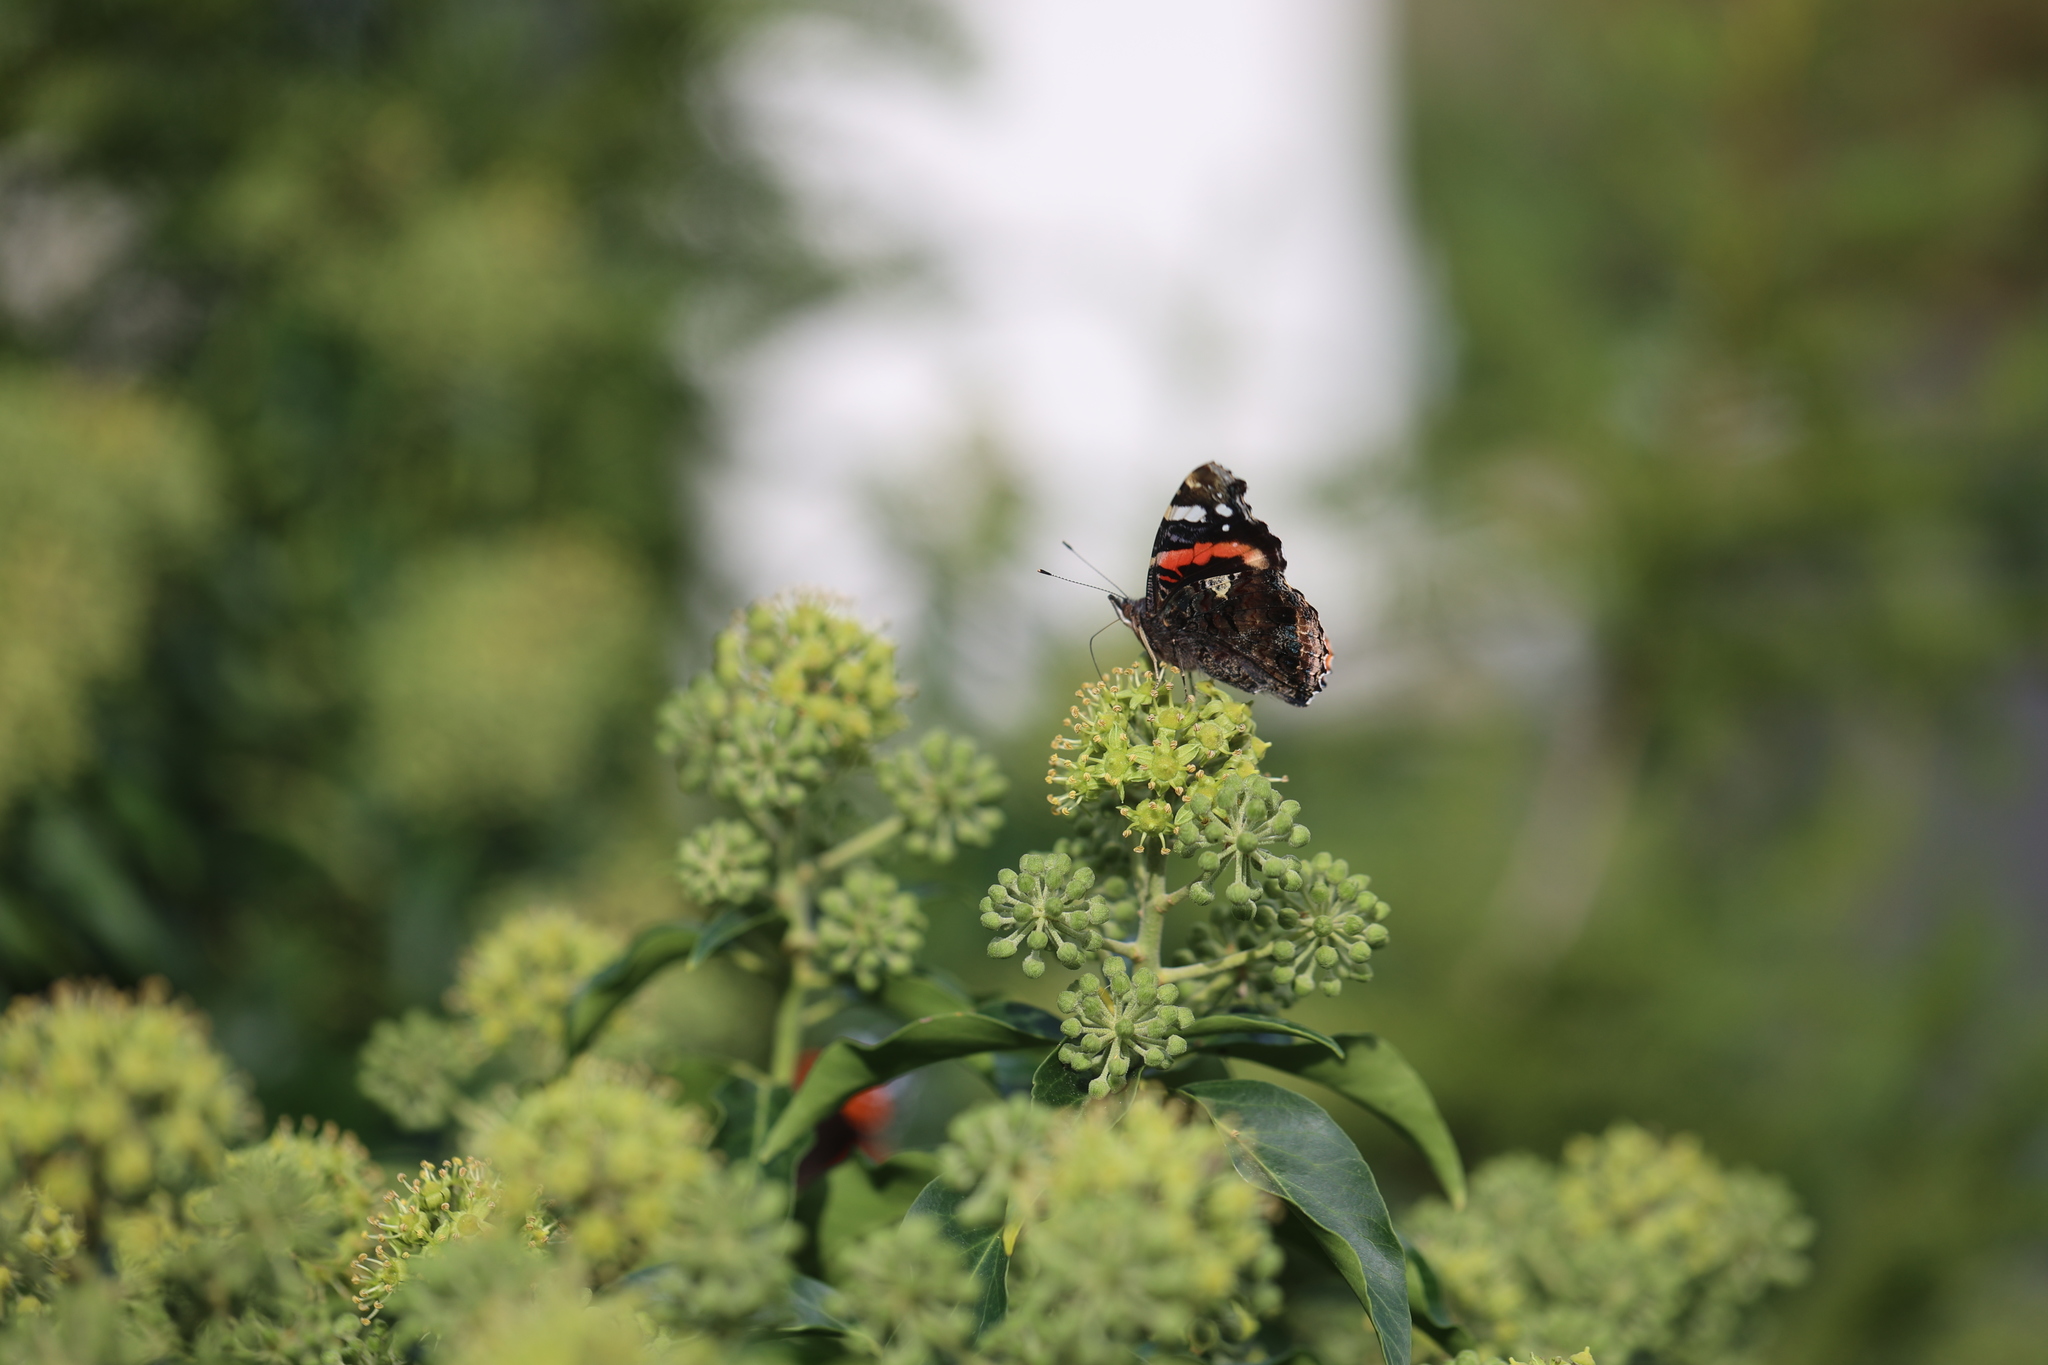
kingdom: Animalia
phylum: Arthropoda
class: Insecta
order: Lepidoptera
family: Nymphalidae
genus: Vanessa
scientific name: Vanessa atalanta
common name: Red admiral
